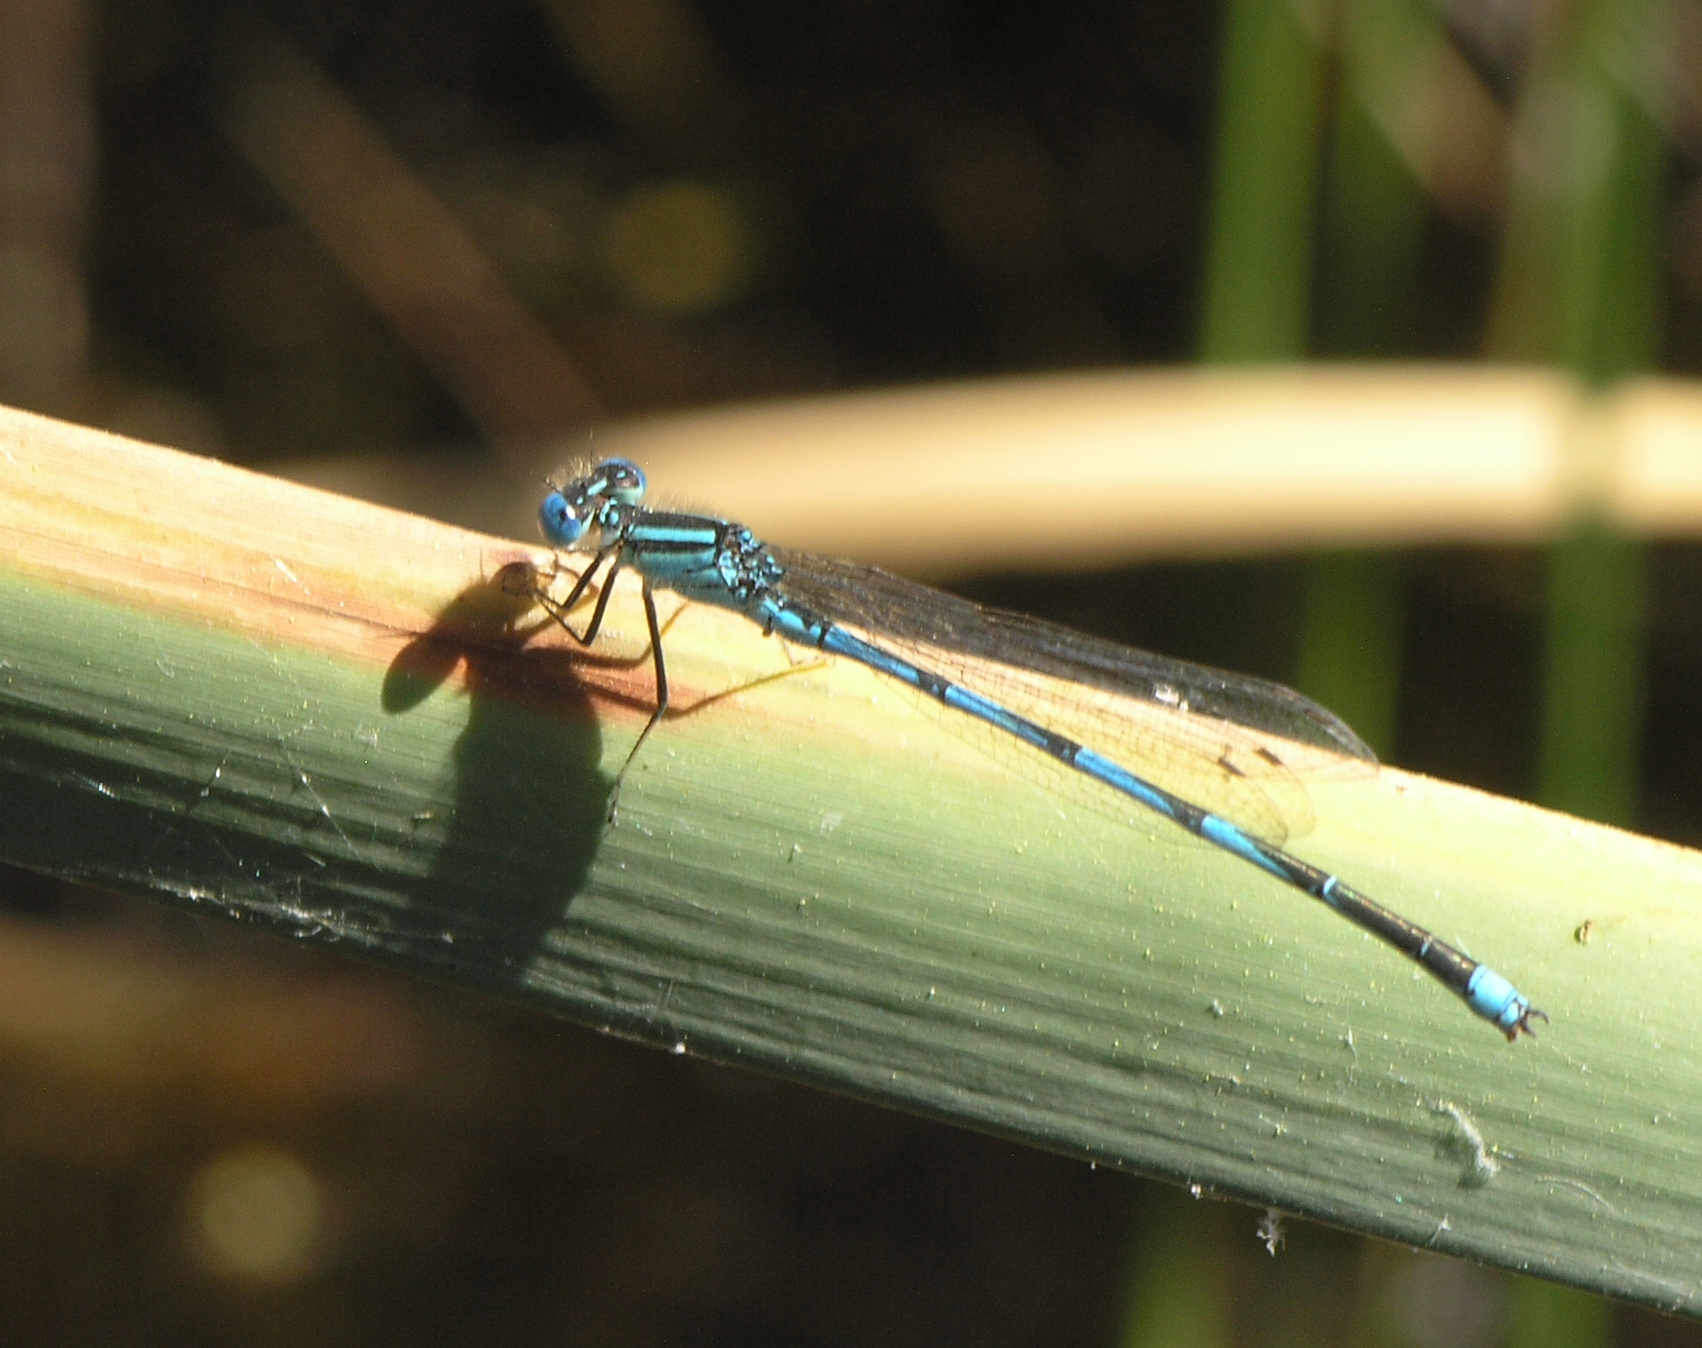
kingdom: Animalia
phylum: Arthropoda
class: Insecta
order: Odonata
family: Coenagrionidae
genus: Erythromma
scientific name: Erythromma lindenii
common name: Blue-eye
